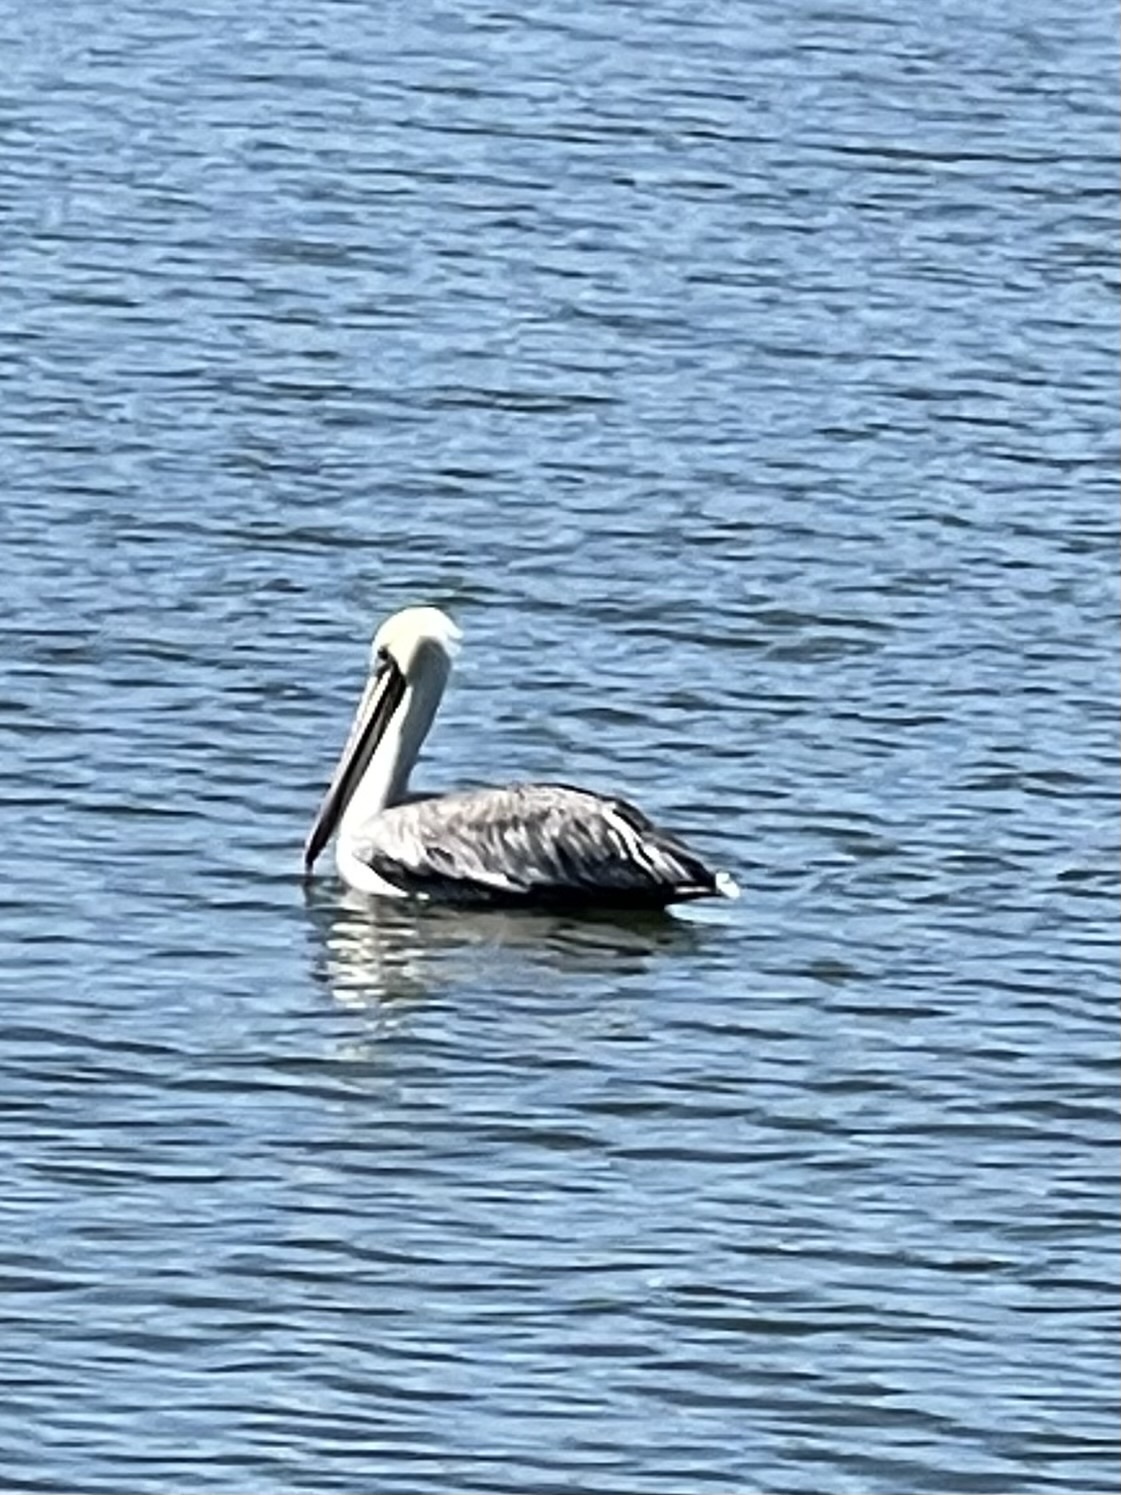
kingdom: Animalia
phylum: Chordata
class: Aves
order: Pelecaniformes
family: Pelecanidae
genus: Pelecanus
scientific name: Pelecanus occidentalis
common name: Brown pelican
